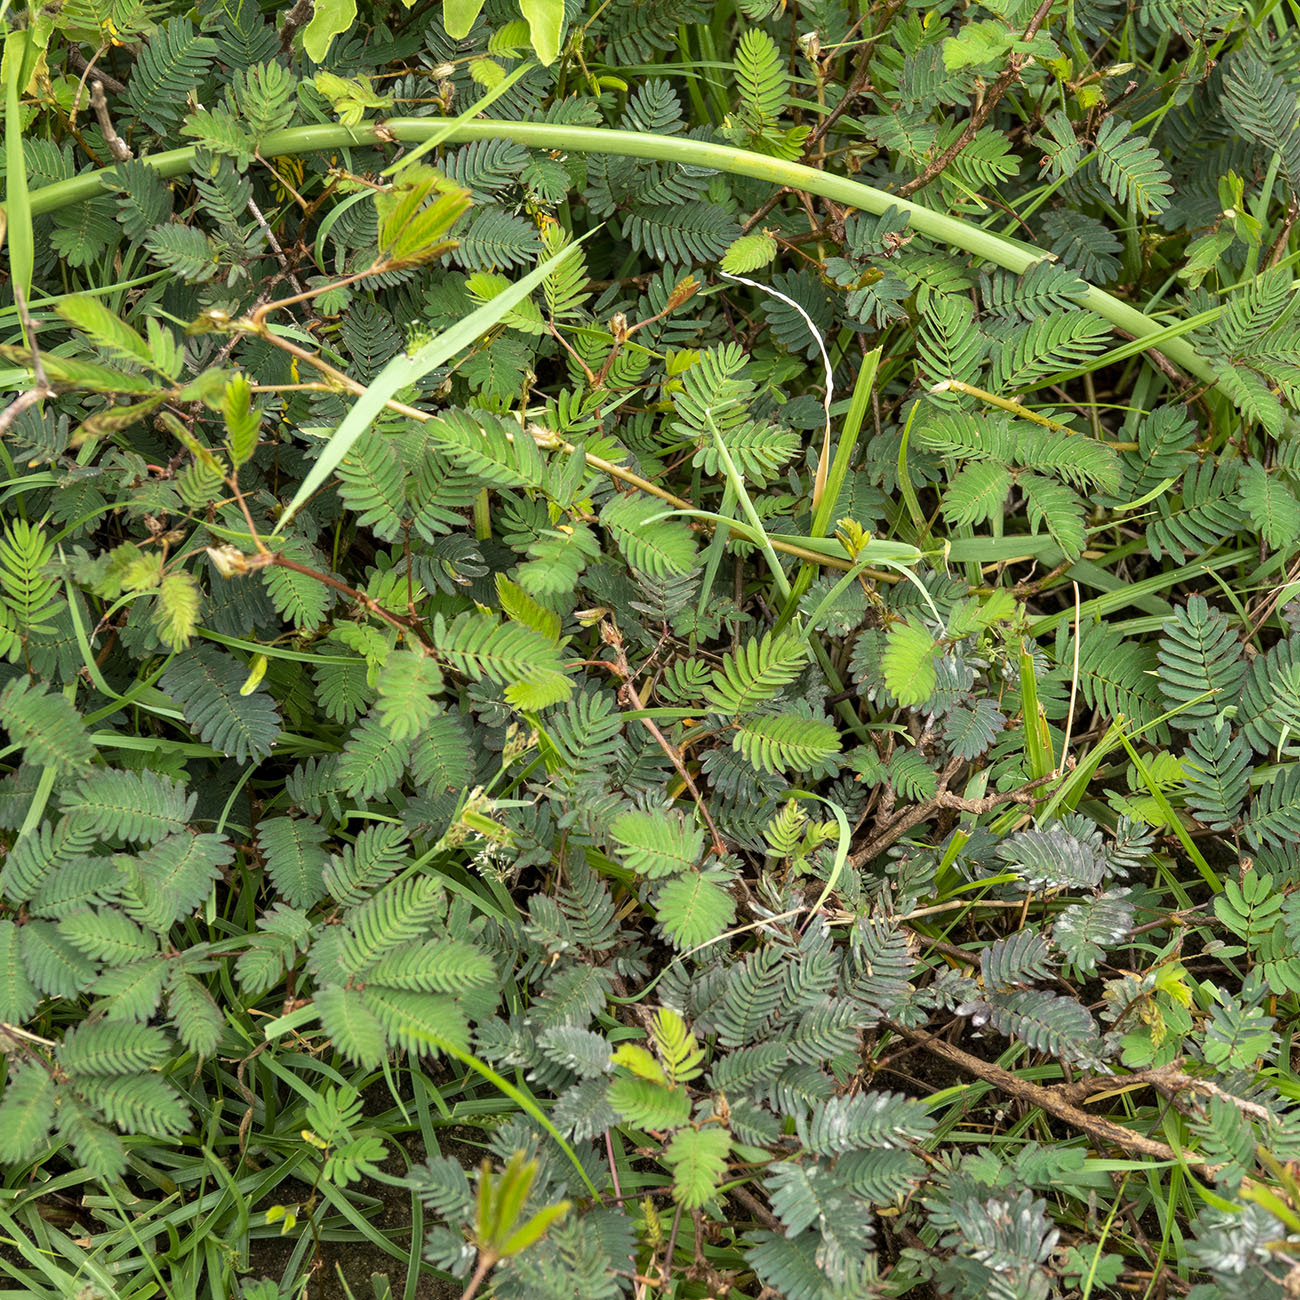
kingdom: Plantae
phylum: Tracheophyta
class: Magnoliopsida
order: Fabales
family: Fabaceae
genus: Mimosa
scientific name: Mimosa pudica
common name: Sensitive plant
